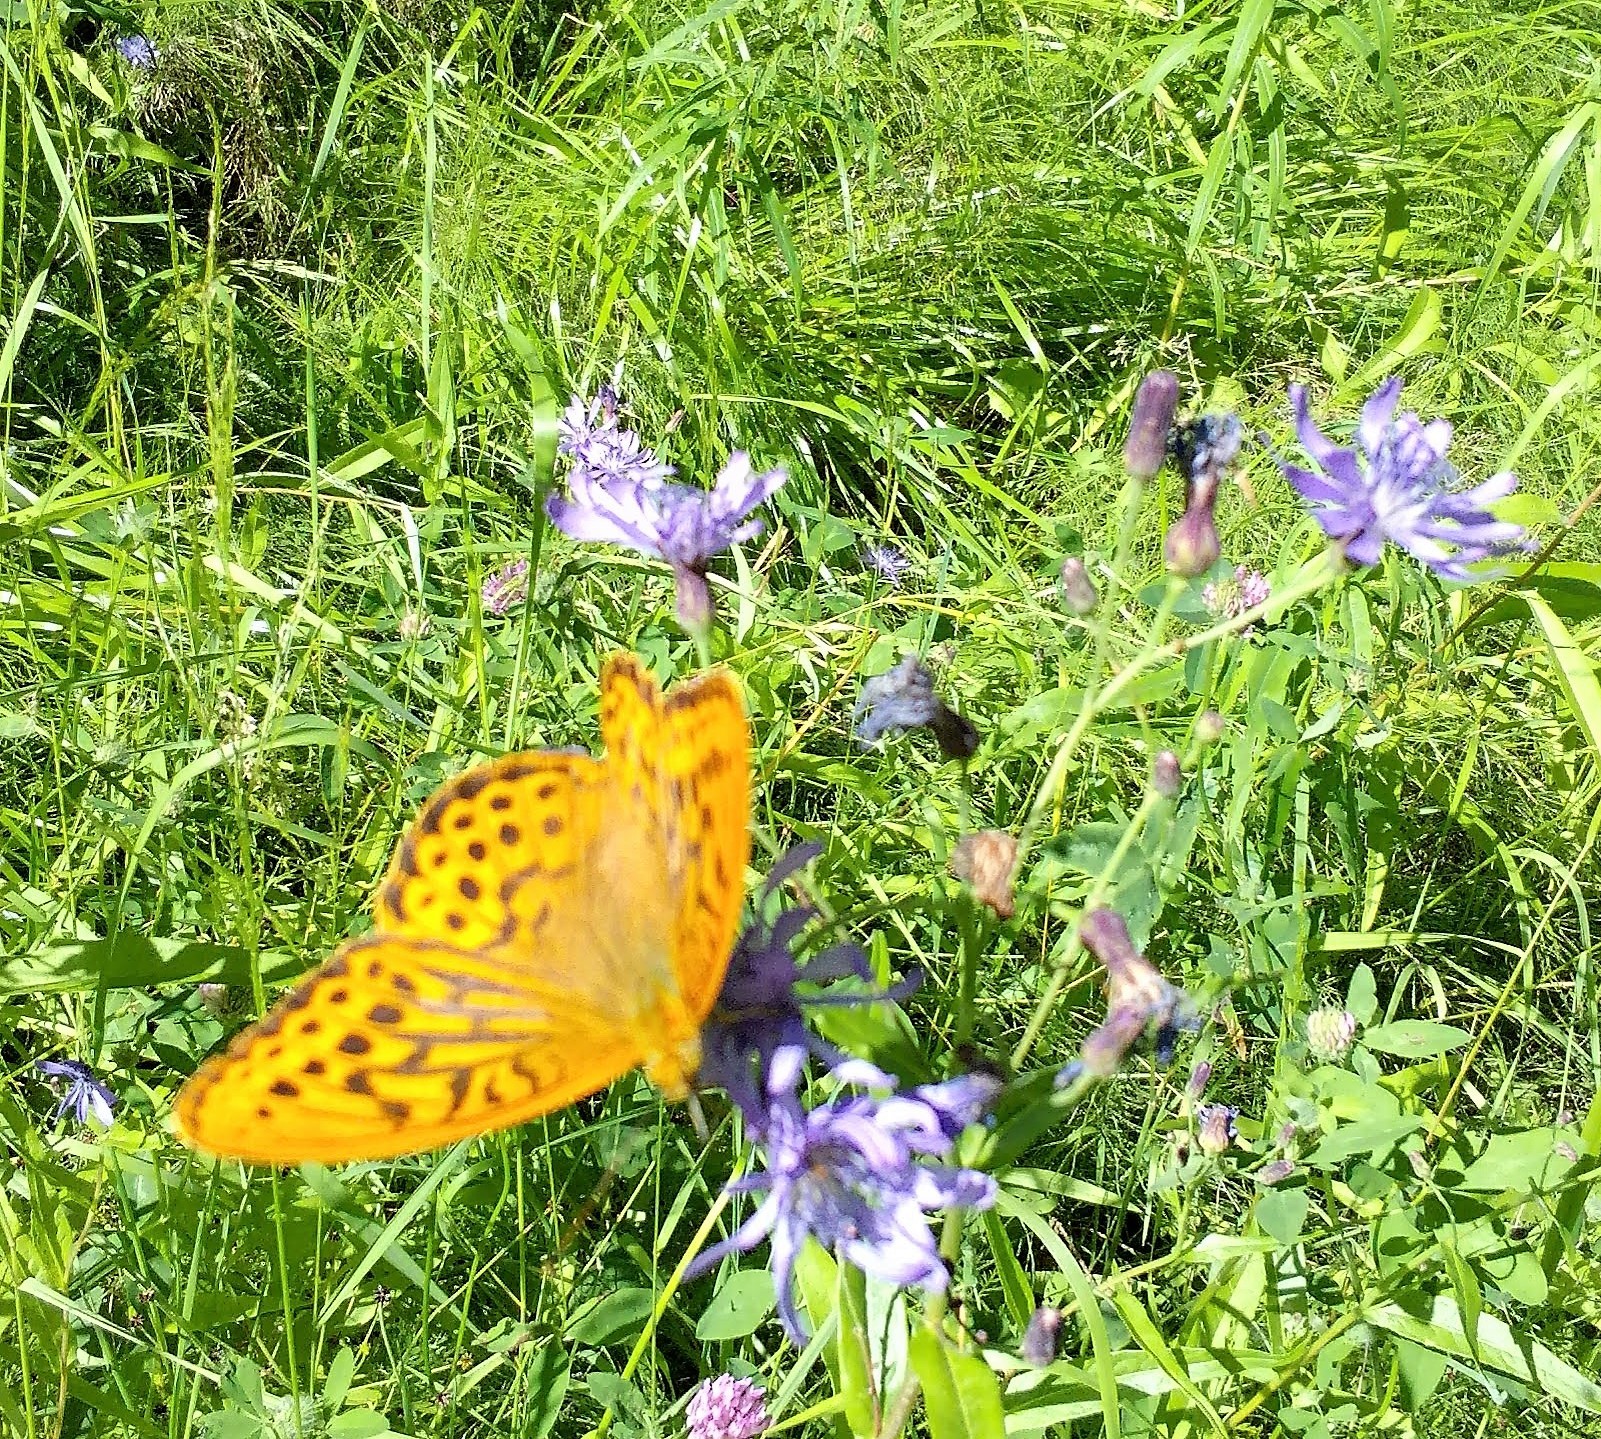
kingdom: Animalia
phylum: Arthropoda
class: Insecta
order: Lepidoptera
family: Nymphalidae
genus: Argynnis
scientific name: Argynnis paphia
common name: Silver-washed fritillary
